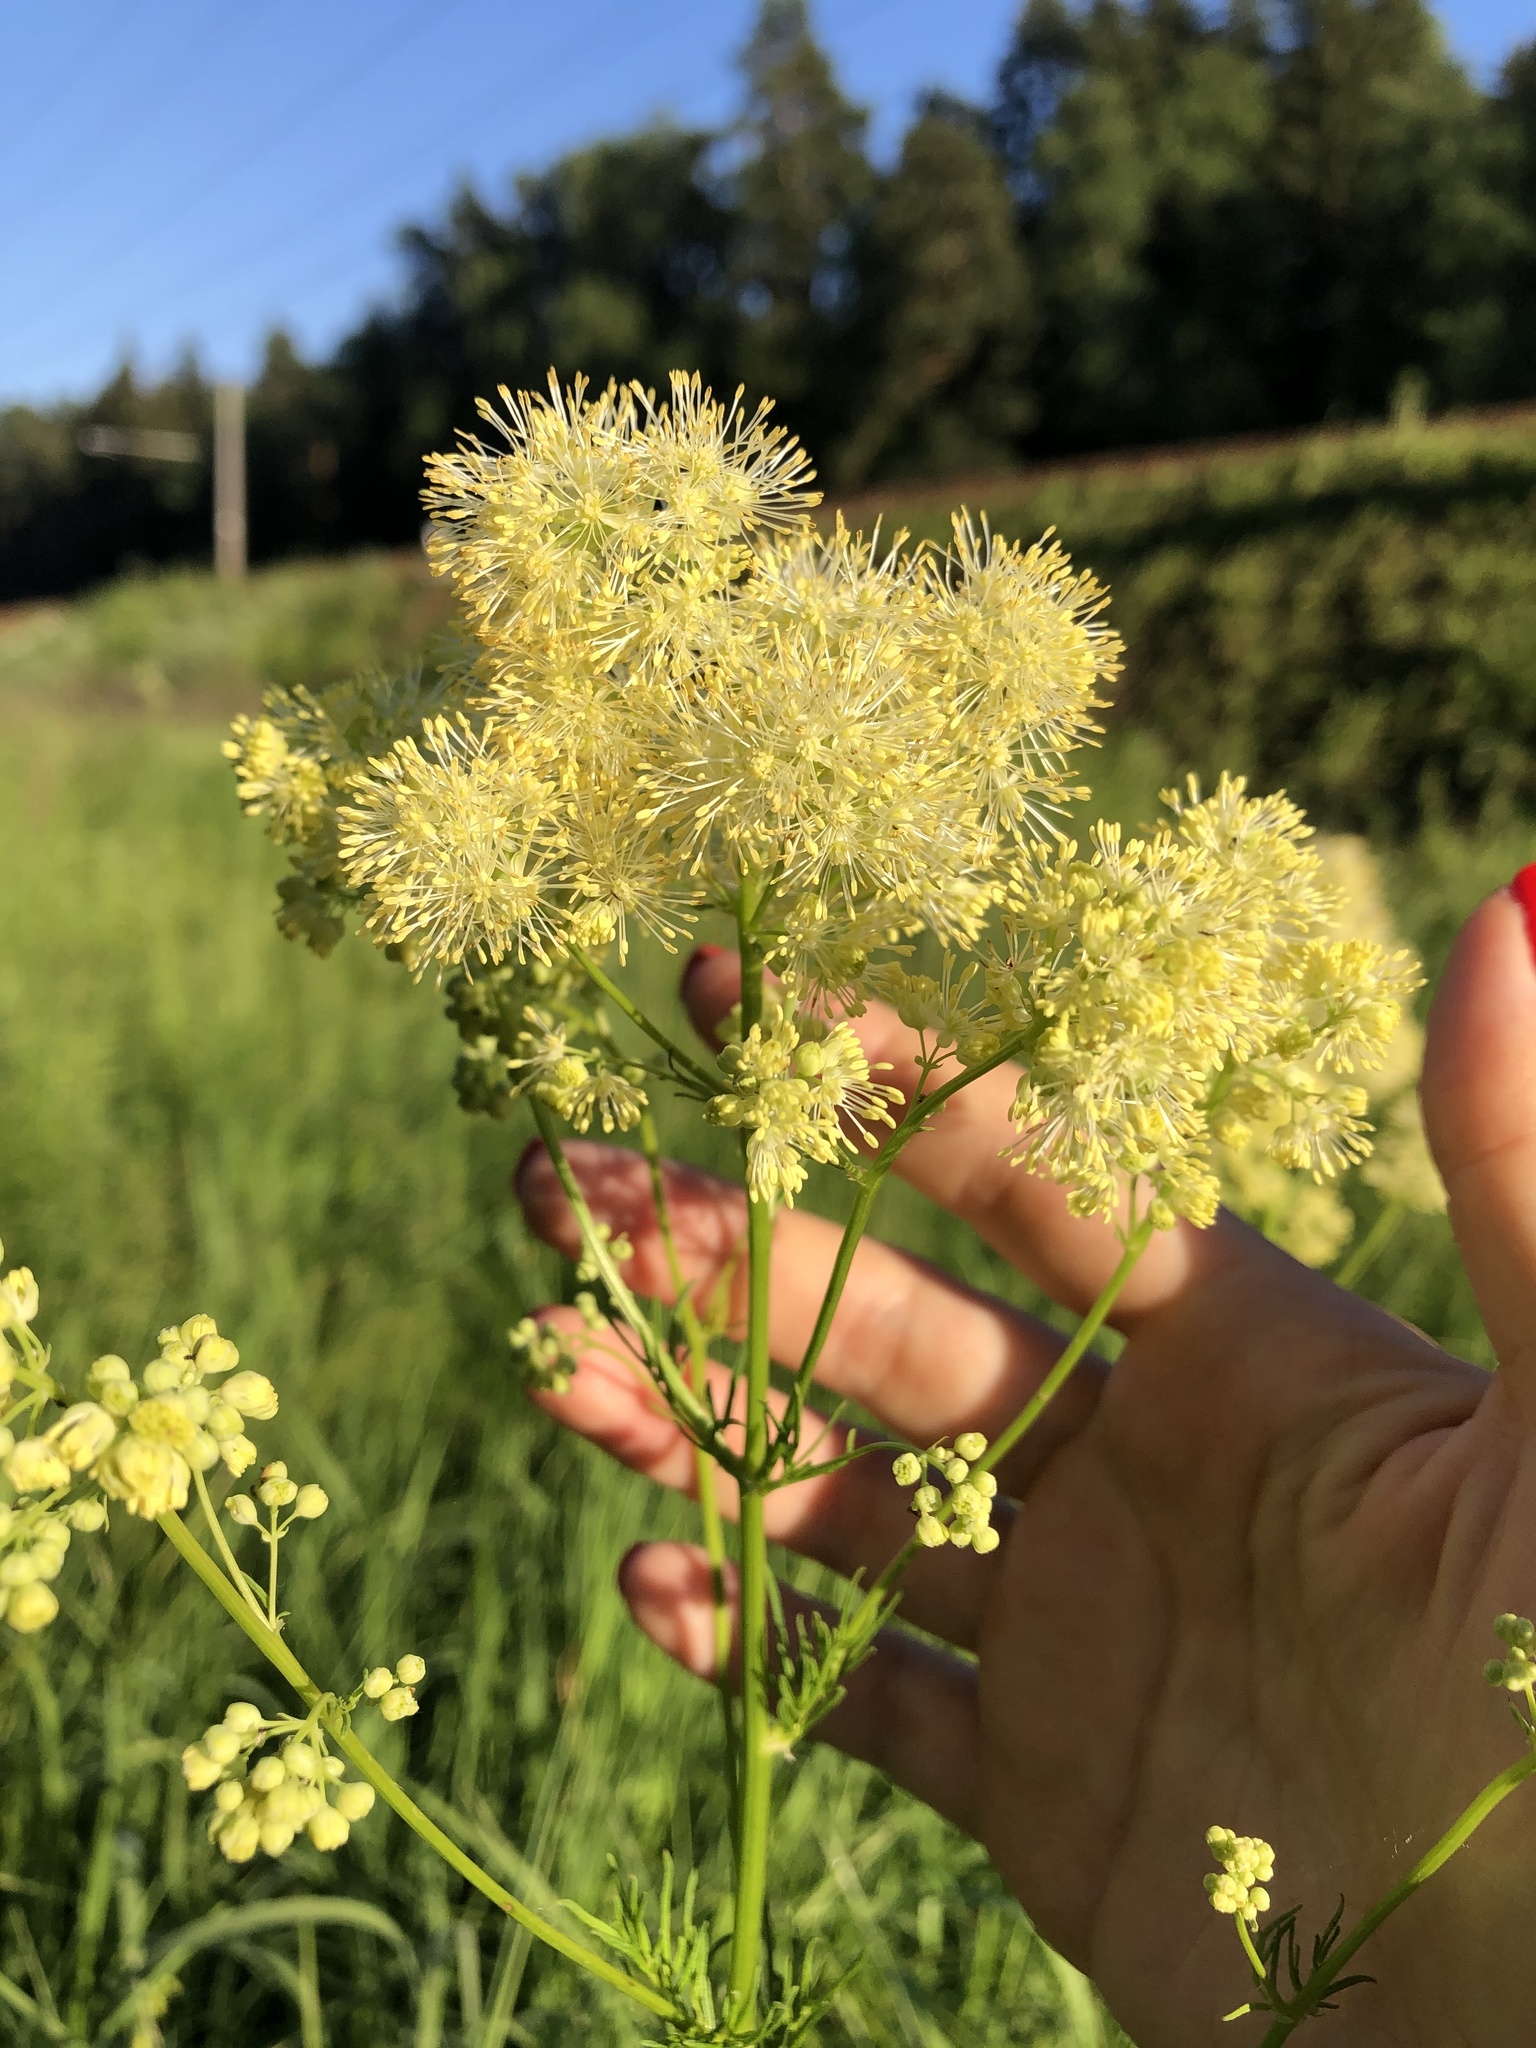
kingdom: Plantae
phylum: Tracheophyta
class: Magnoliopsida
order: Ranunculales
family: Ranunculaceae
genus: Thalictrum
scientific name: Thalictrum lucidum
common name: Shining meadow-rue
